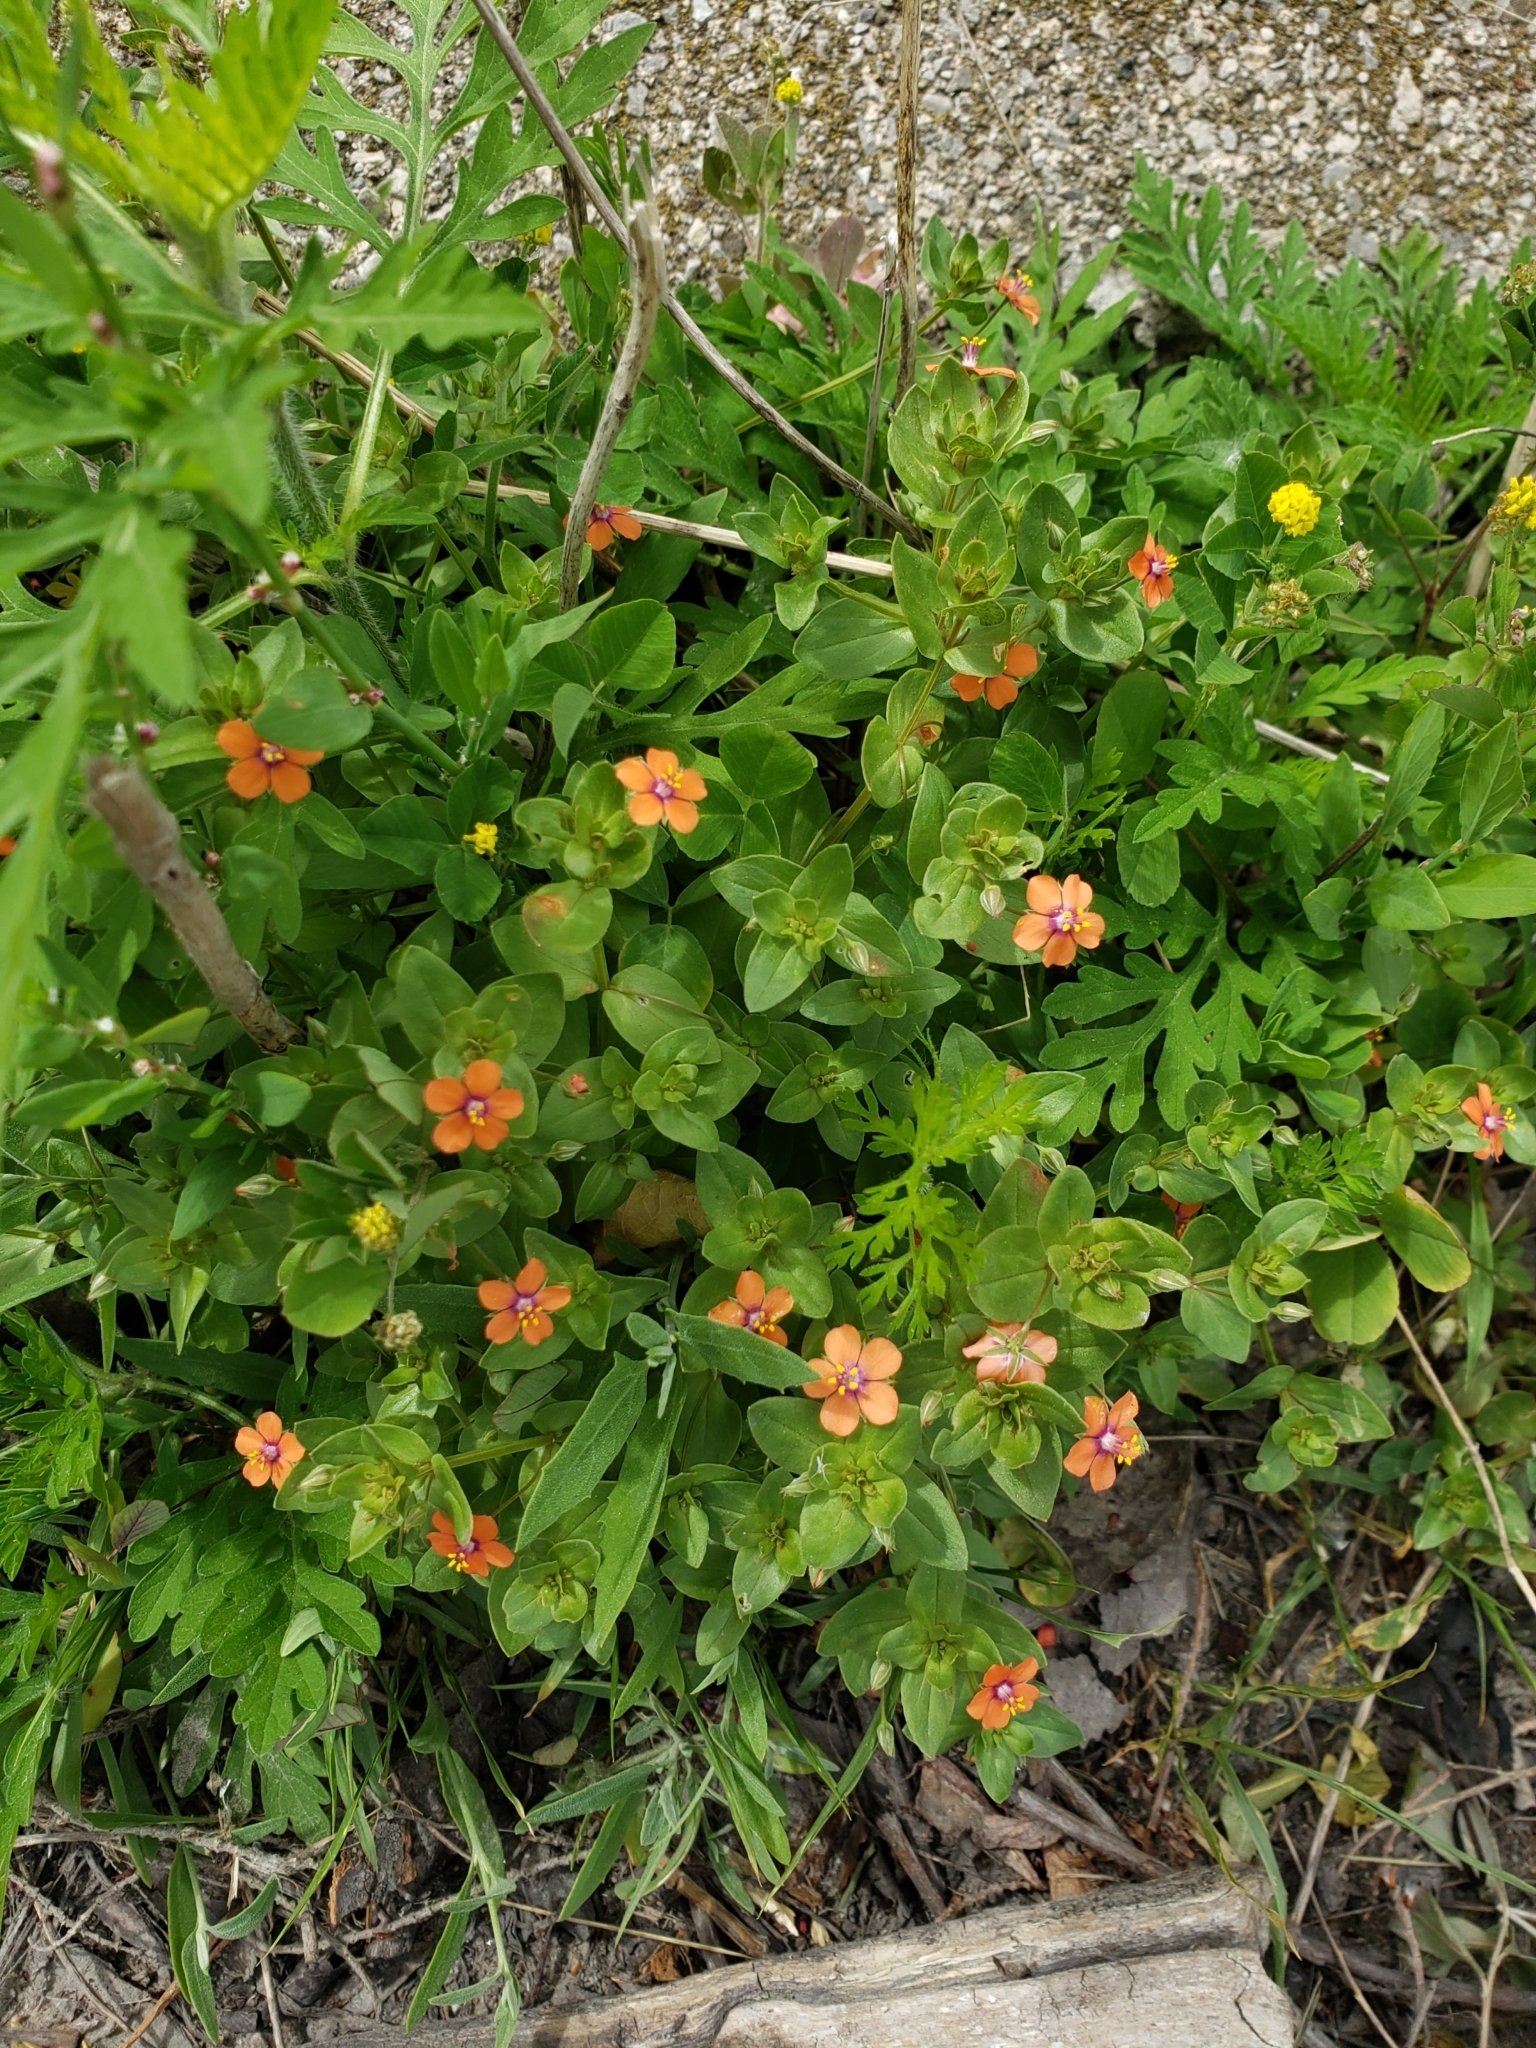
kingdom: Plantae
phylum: Tracheophyta
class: Magnoliopsida
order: Ericales
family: Primulaceae
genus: Lysimachia
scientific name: Lysimachia arvensis
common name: Scarlet pimpernel
